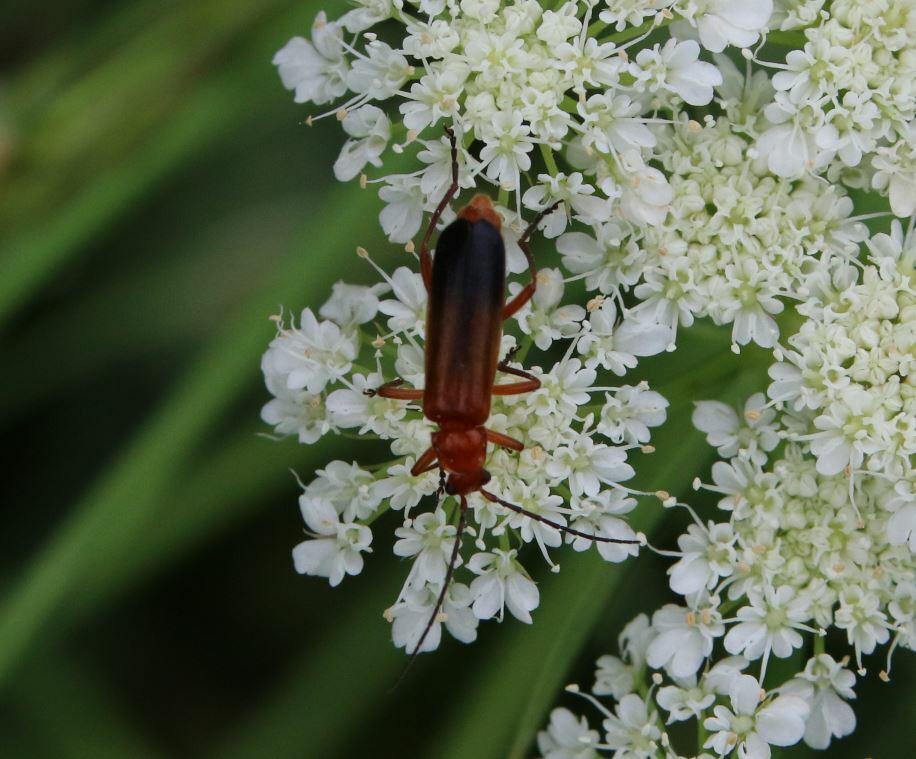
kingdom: Animalia
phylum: Arthropoda
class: Insecta
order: Coleoptera
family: Cantharidae
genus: Rhagonycha
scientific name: Rhagonycha fulva
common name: Common red soldier beetle
